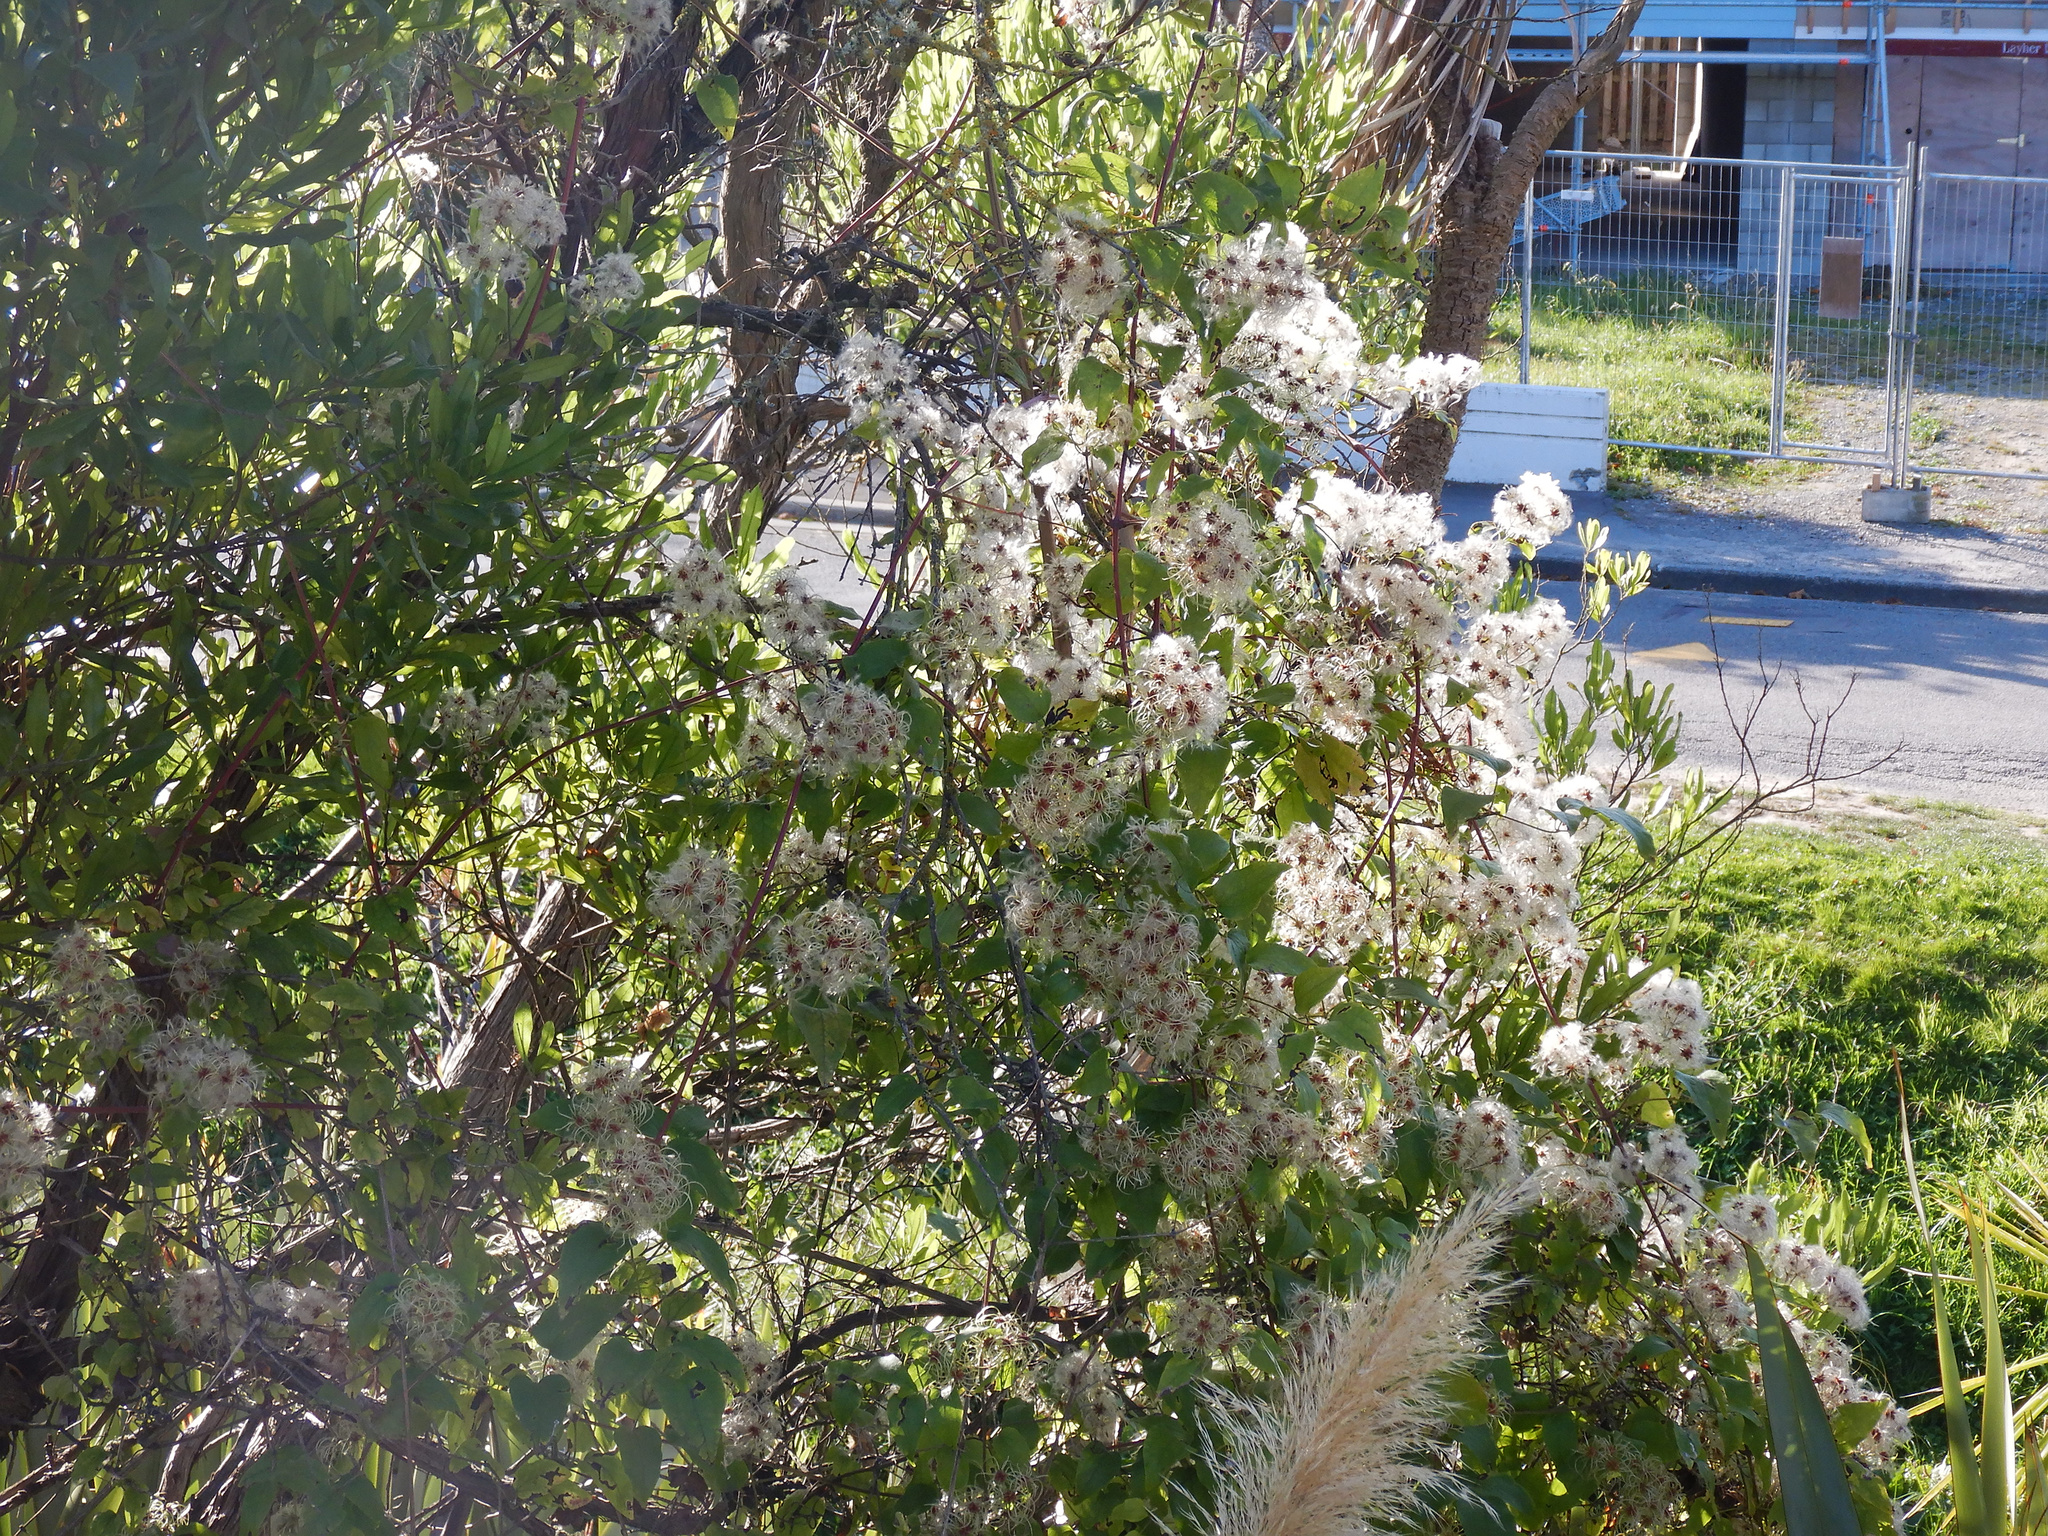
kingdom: Plantae
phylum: Tracheophyta
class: Magnoliopsida
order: Ranunculales
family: Ranunculaceae
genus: Clematis
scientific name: Clematis vitalba
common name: Evergreen clematis
